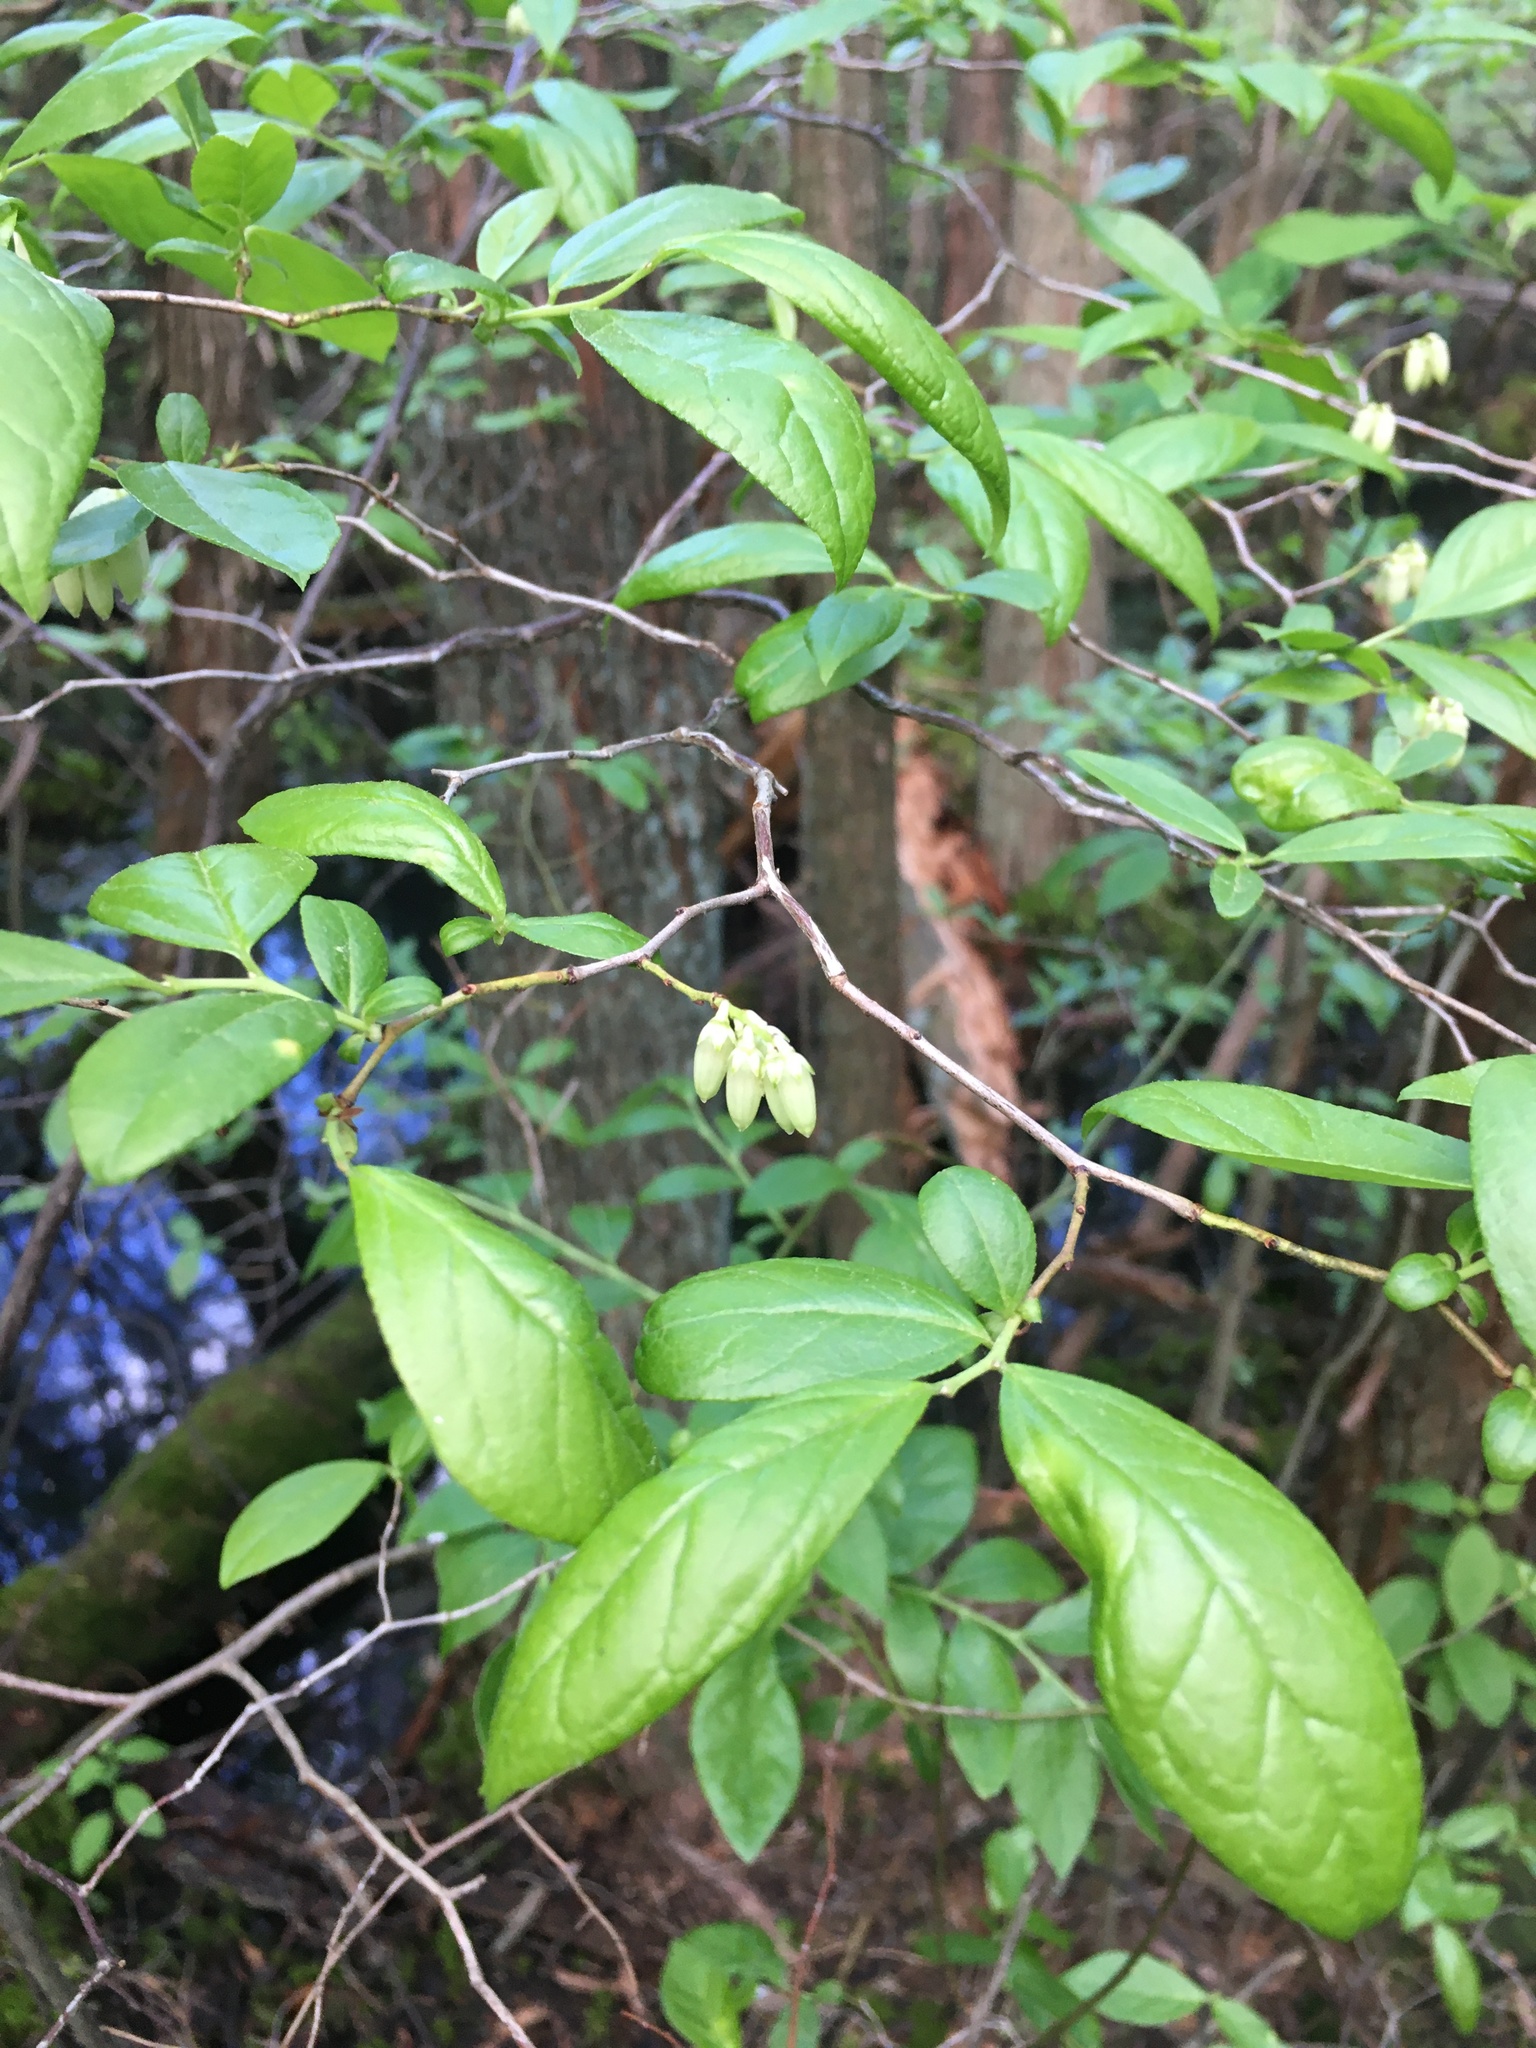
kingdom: Plantae
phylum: Tracheophyta
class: Magnoliopsida
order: Ericales
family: Ericaceae
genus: Eubotrys
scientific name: Eubotrys racemosa
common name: Fetterbush
